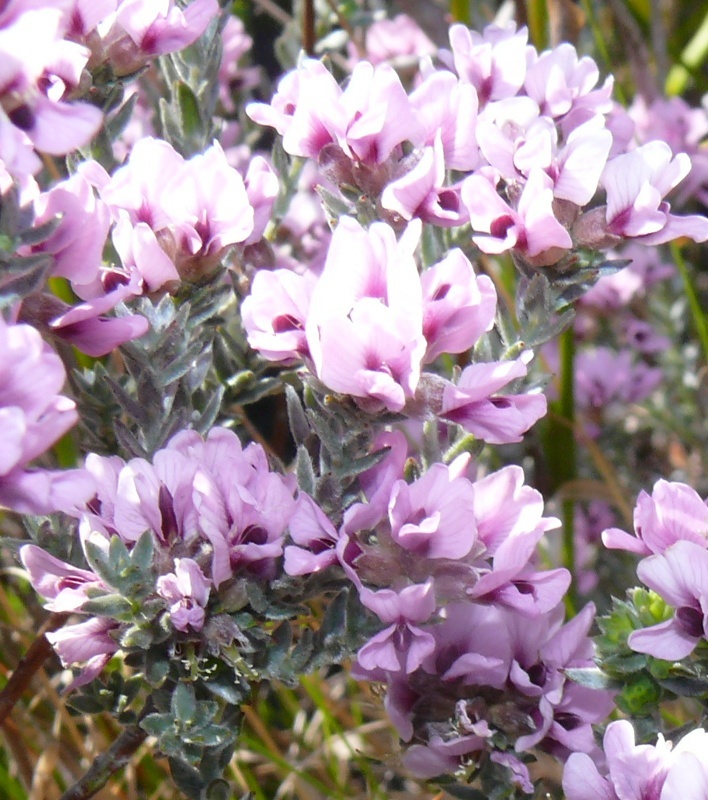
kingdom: Plantae
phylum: Tracheophyta
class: Magnoliopsida
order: Fabales
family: Fabaceae
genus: Amphithalea
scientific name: Amphithalea ericifolia
